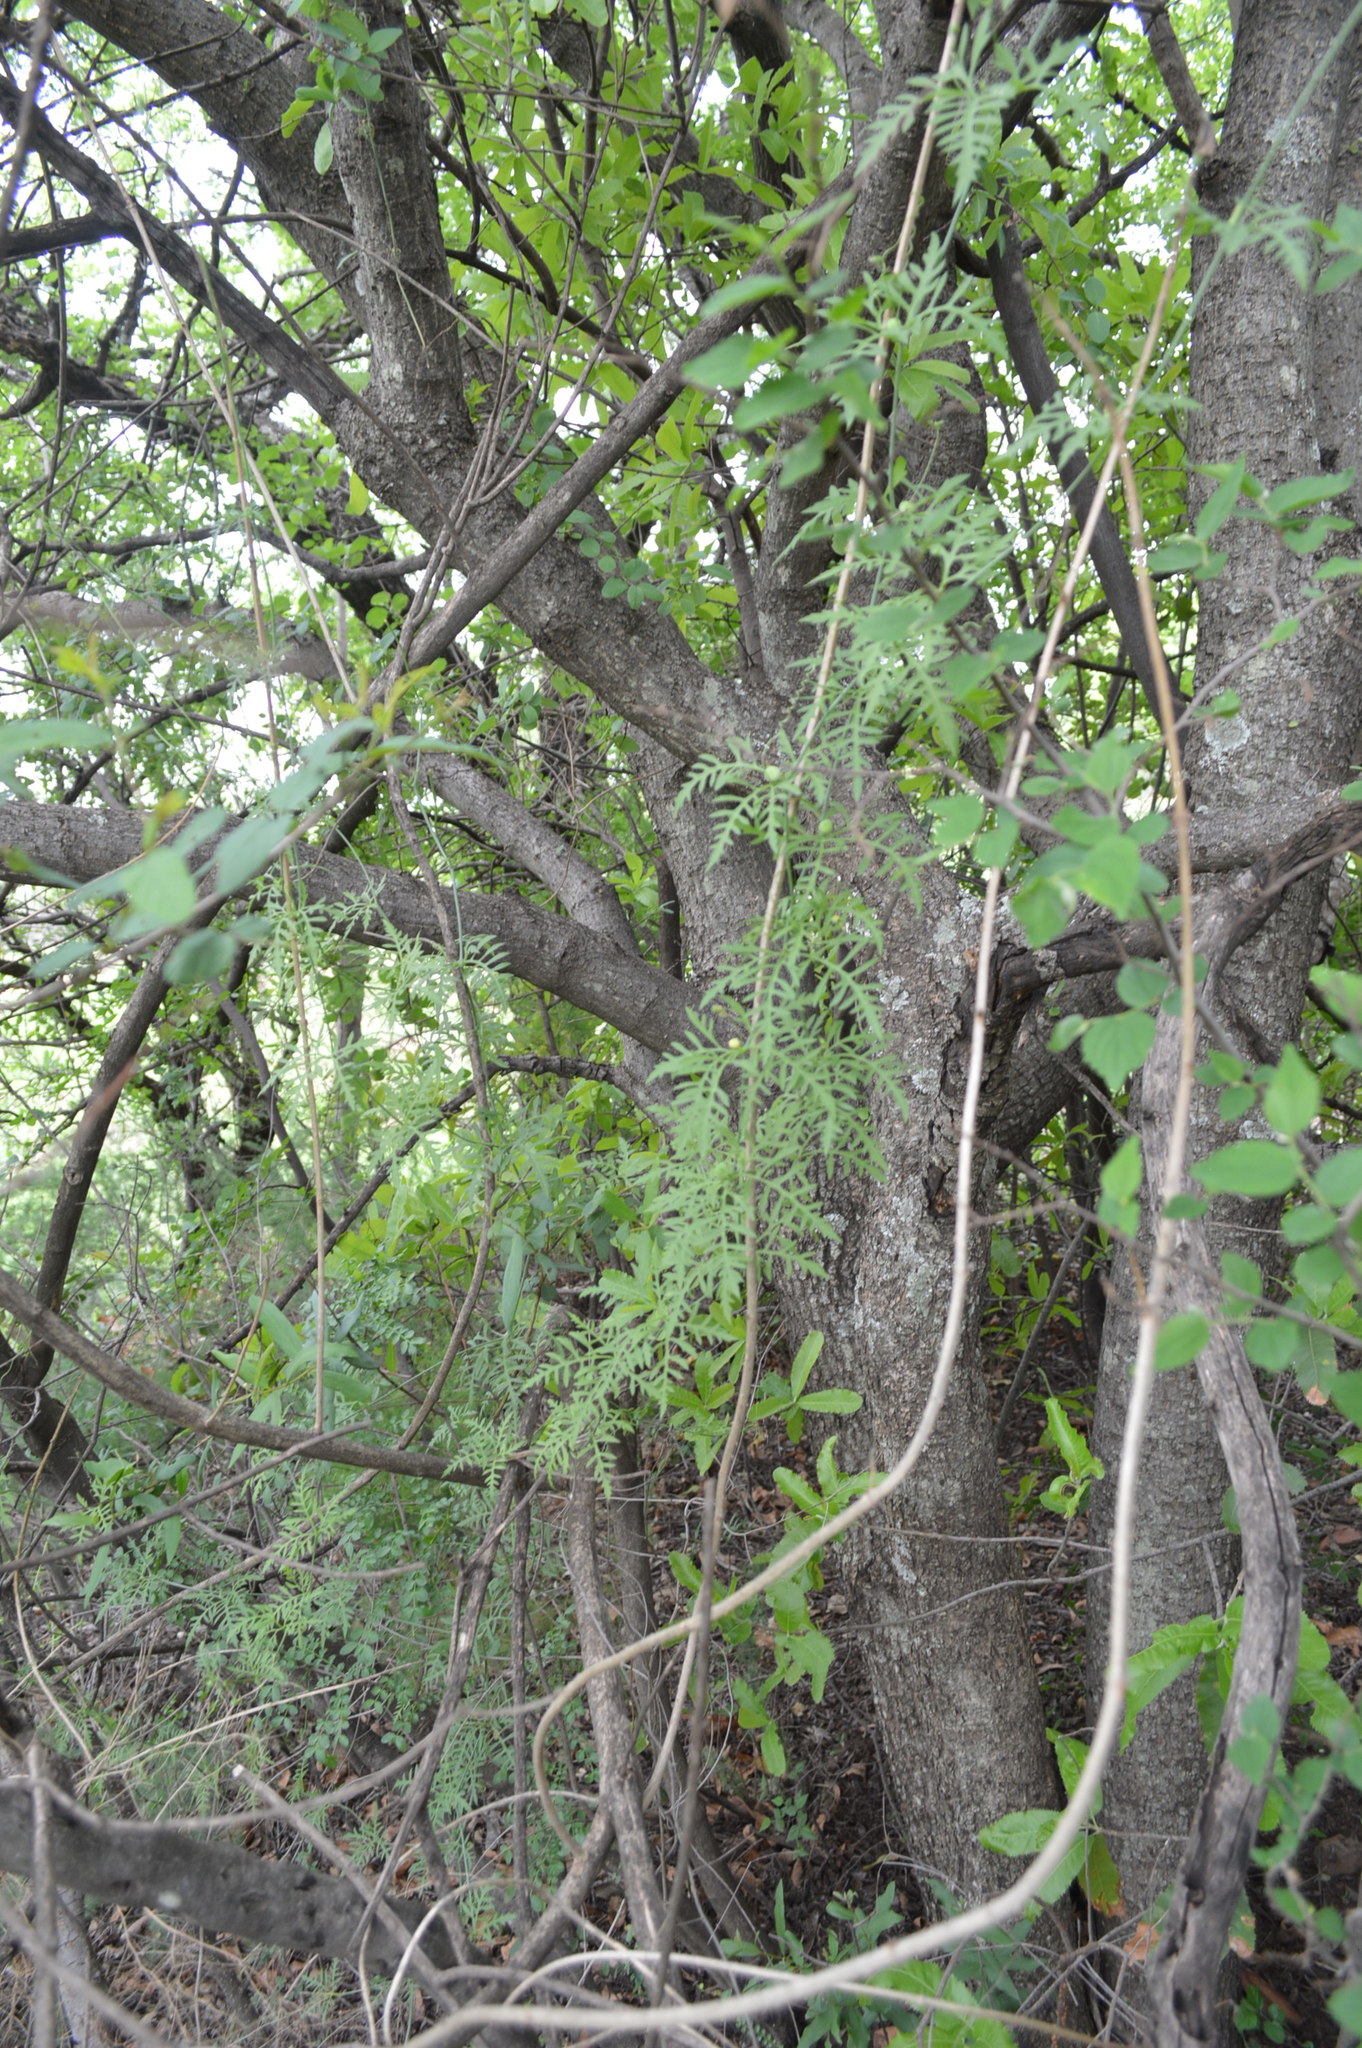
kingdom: Plantae
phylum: Tracheophyta
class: Magnoliopsida
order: Cucurbitales
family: Cucurbitaceae
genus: Kedrostis
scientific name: Kedrostis africana
